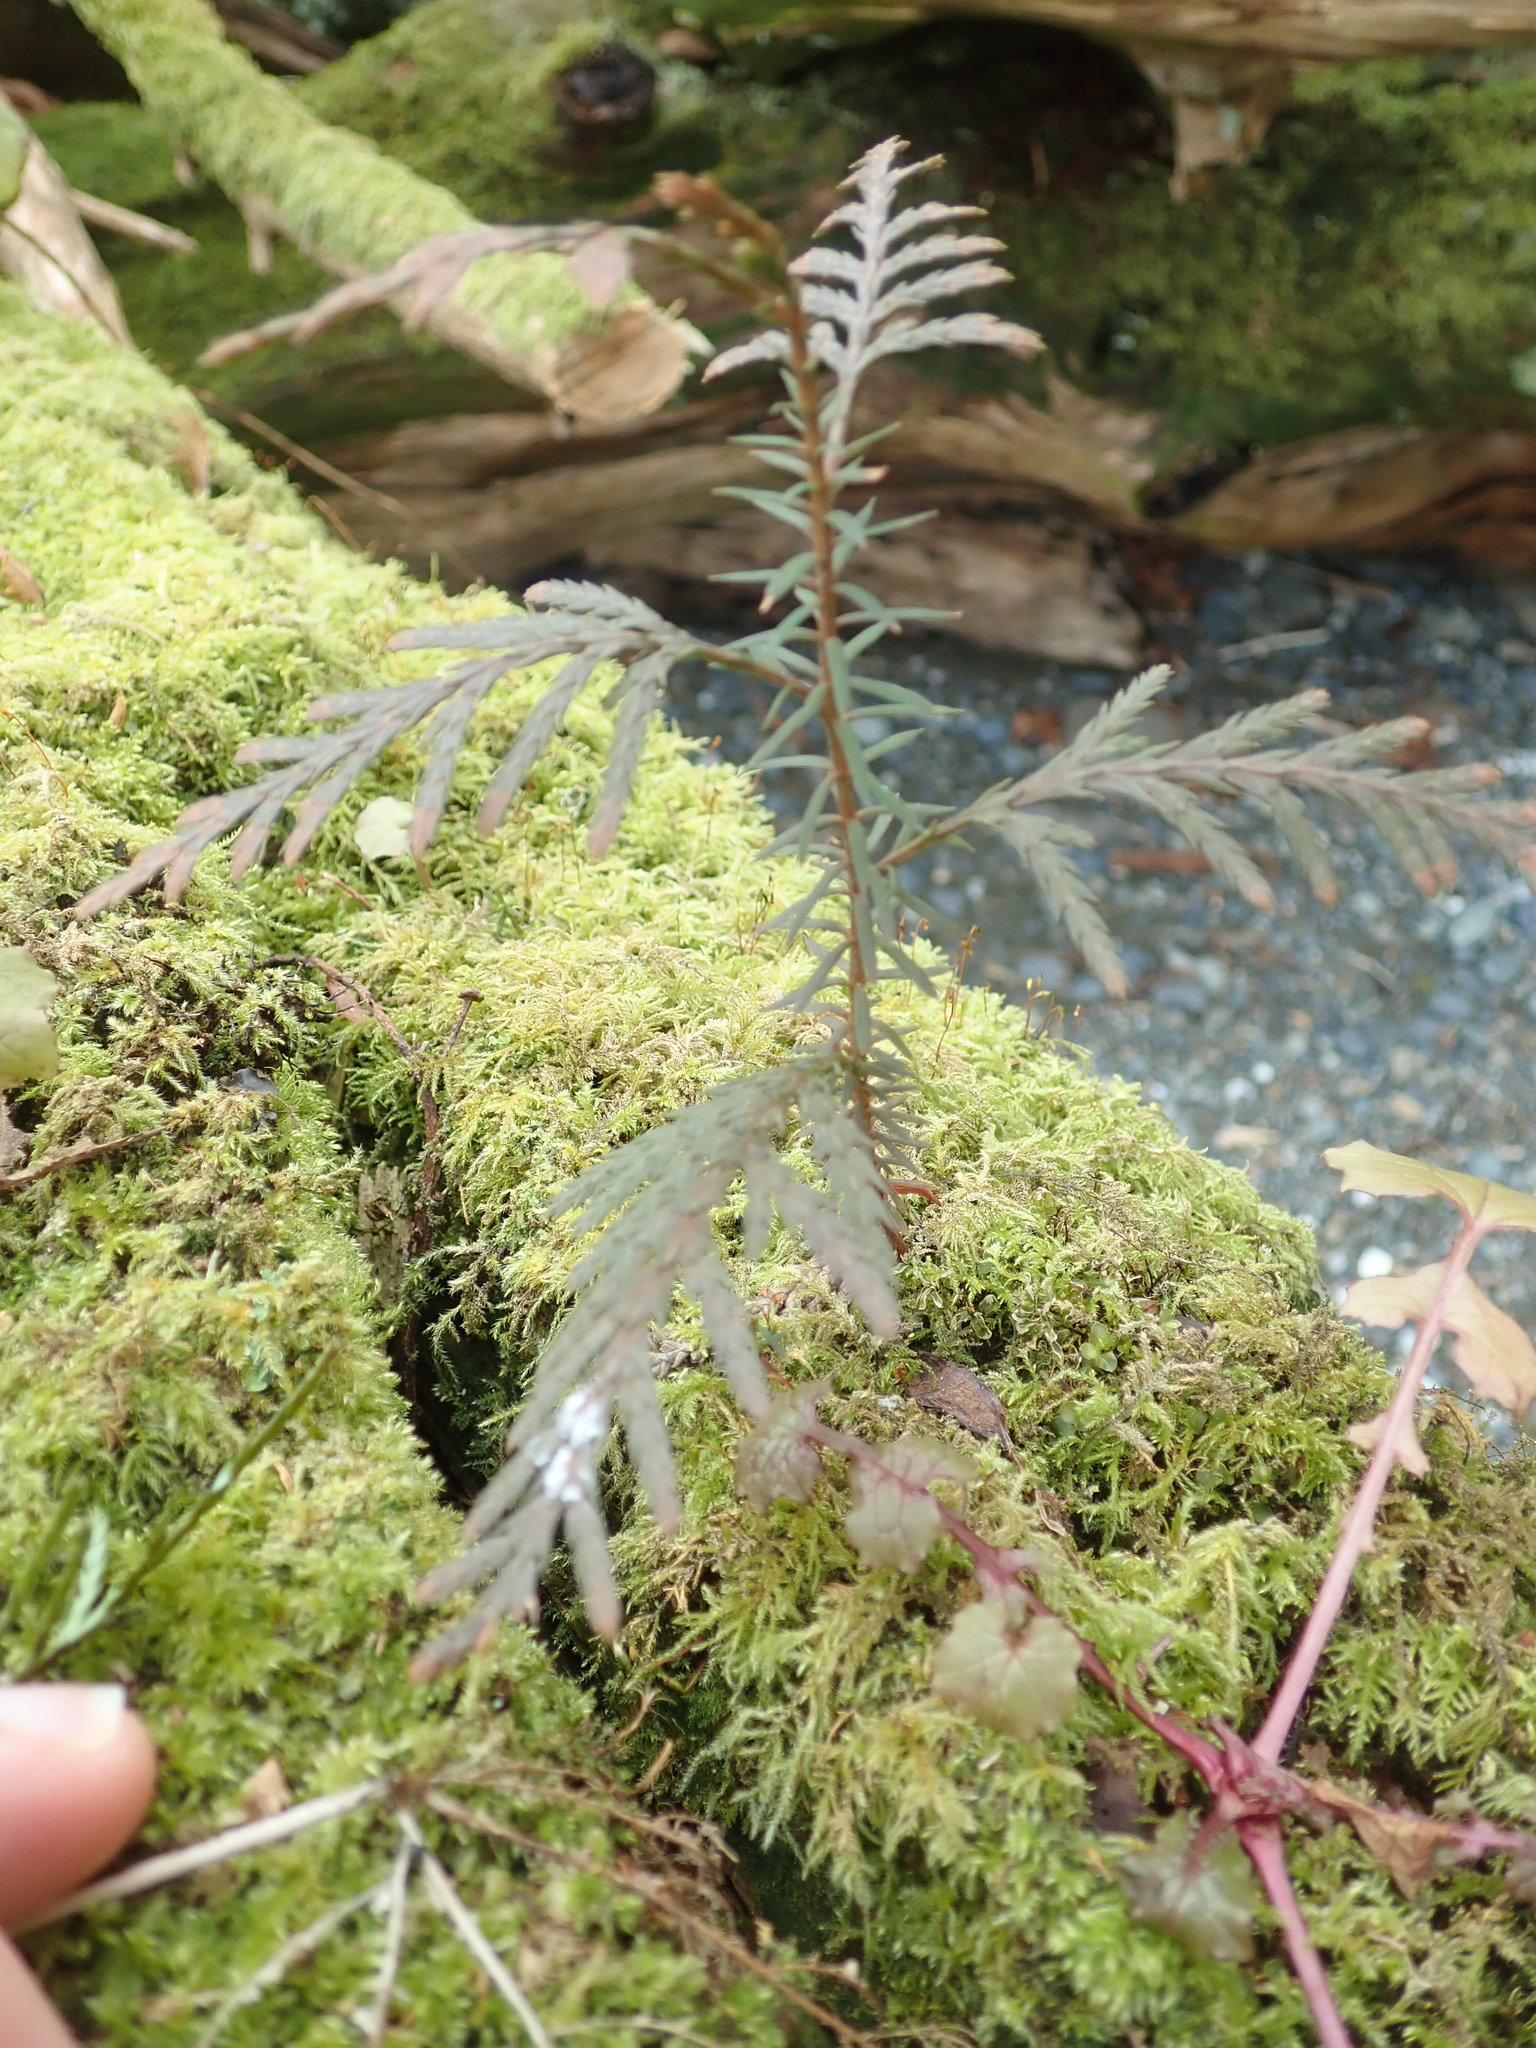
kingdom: Plantae
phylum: Tracheophyta
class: Pinopsida
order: Pinales
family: Cupressaceae
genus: Thuja
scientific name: Thuja plicata
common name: Western red-cedar
